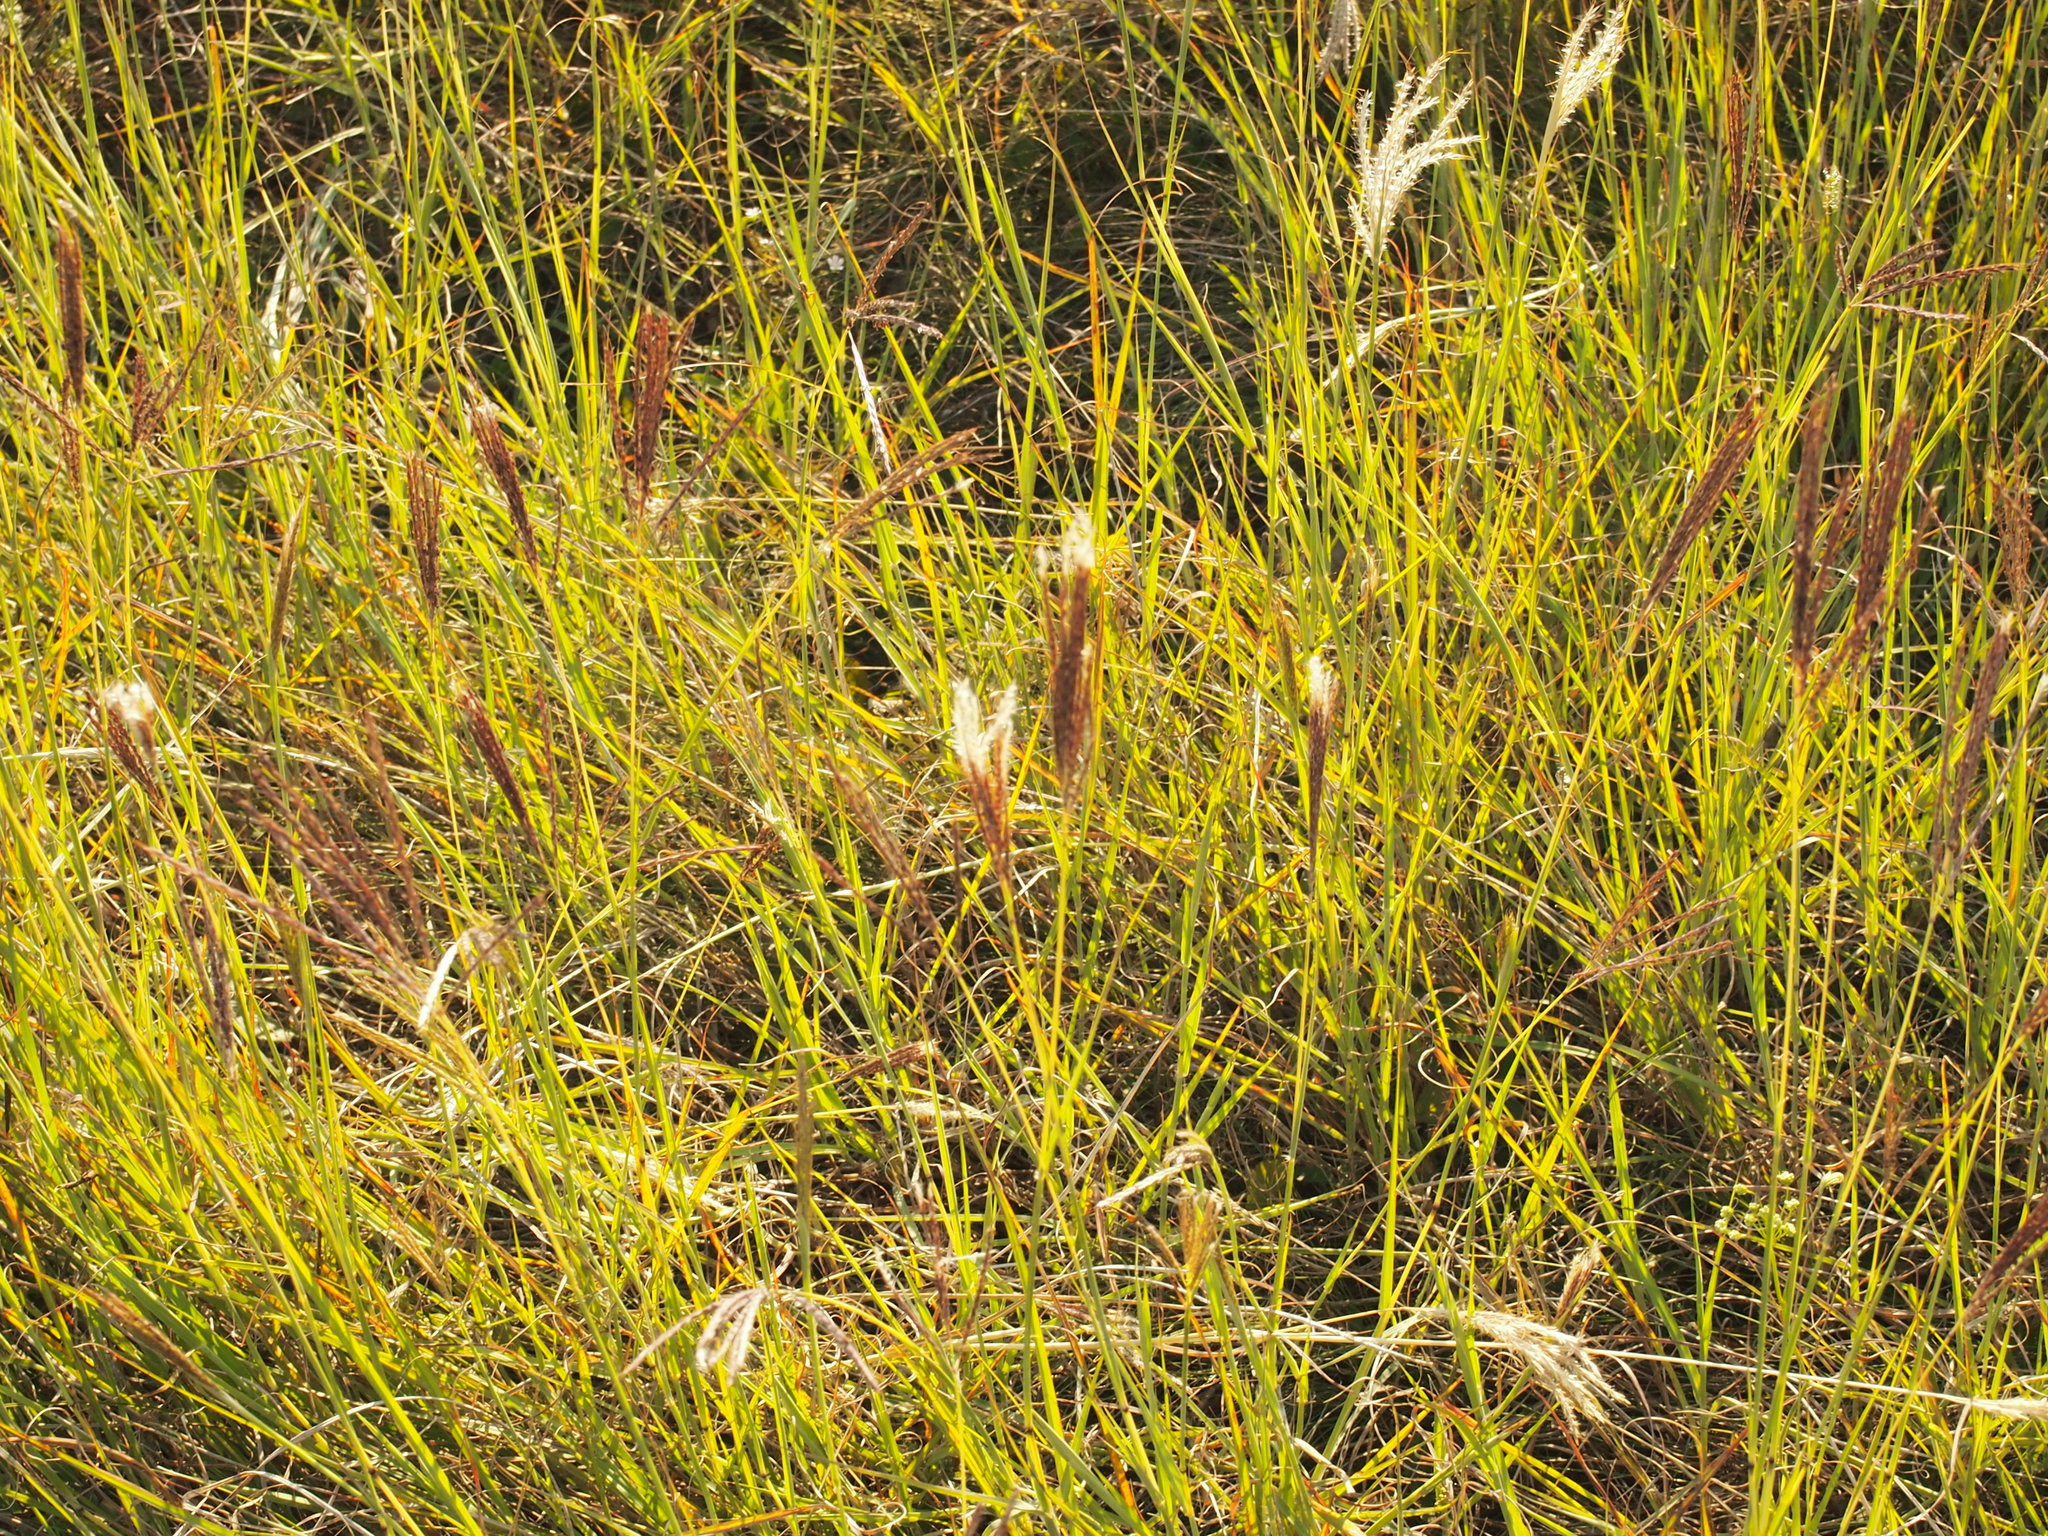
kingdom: Plantae
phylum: Tracheophyta
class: Liliopsida
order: Poales
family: Poaceae
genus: Bothriochloa
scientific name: Bothriochloa ischaemum
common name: Yellow bluestem
